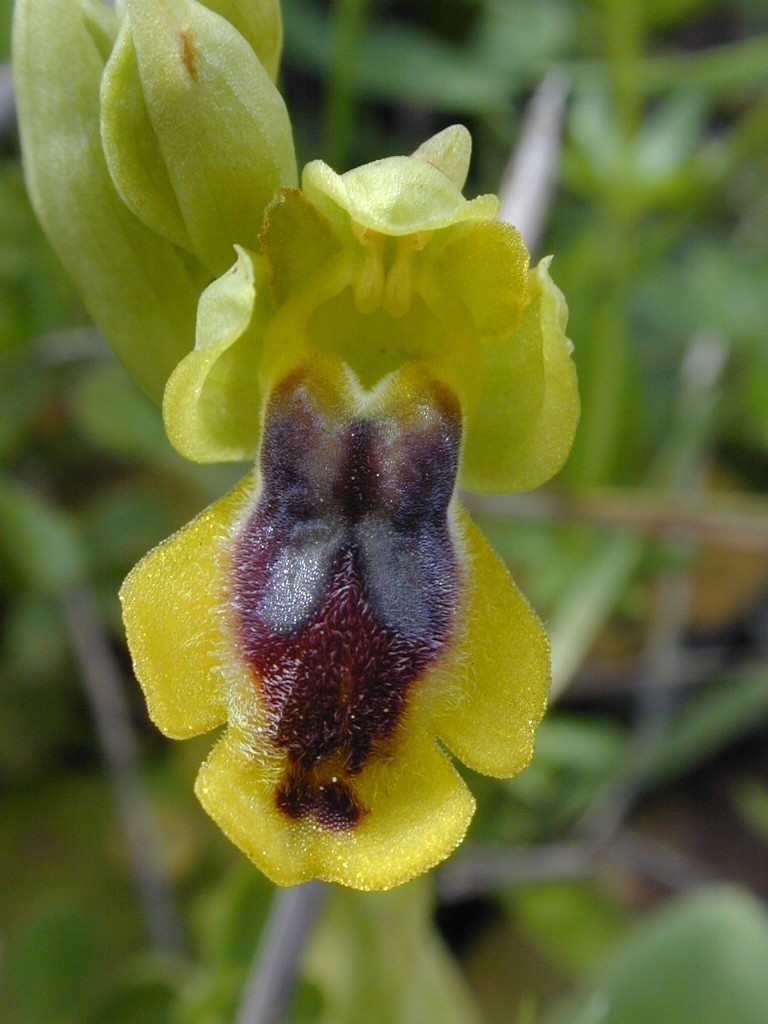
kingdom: Plantae
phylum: Tracheophyta
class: Liliopsida
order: Asparagales
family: Orchidaceae
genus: Ophrys
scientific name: Ophrys lutea
